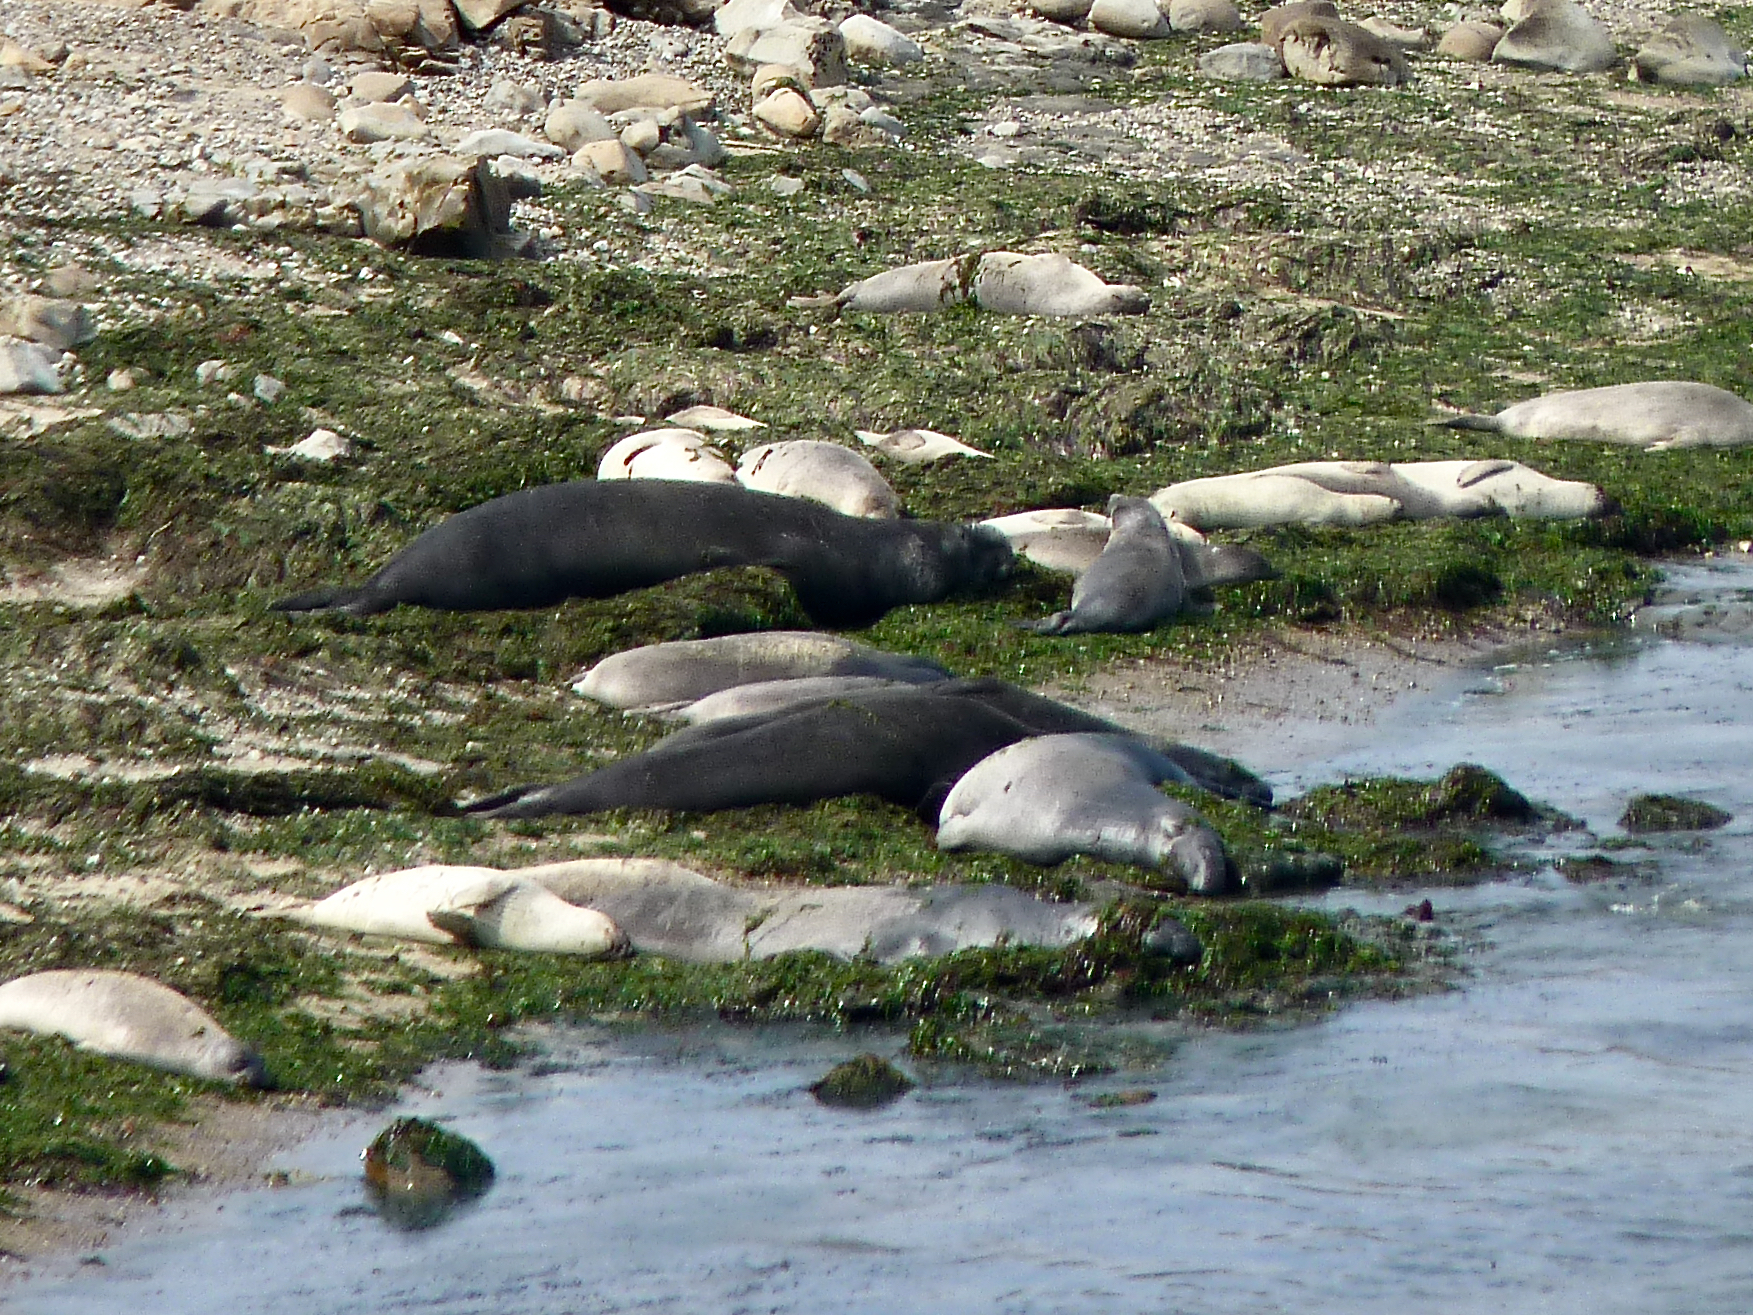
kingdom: Animalia
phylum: Chordata
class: Mammalia
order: Carnivora
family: Phocidae
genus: Mirounga
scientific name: Mirounga angustirostris
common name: Northern elephant seal
